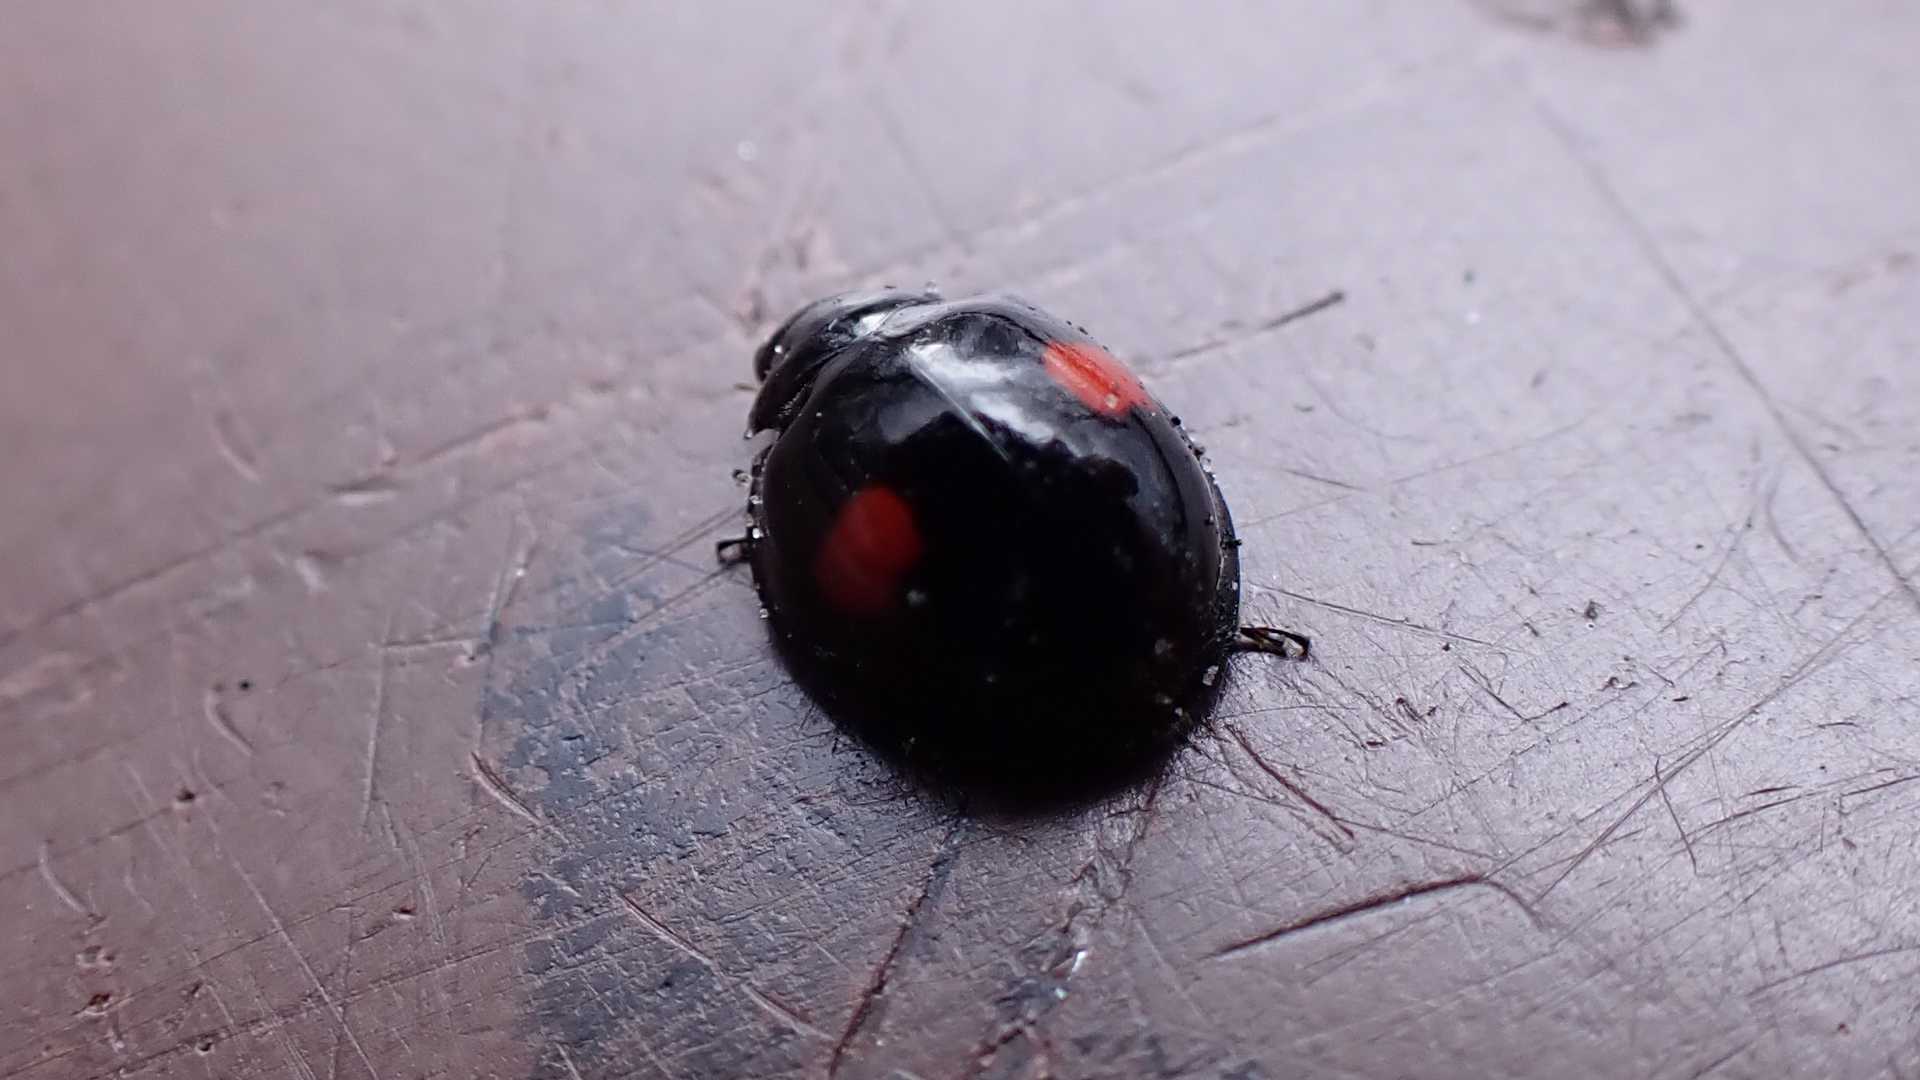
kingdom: Animalia
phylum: Arthropoda
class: Insecta
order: Coleoptera
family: Coccinellidae
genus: Chilocorus
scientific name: Chilocorus renipustulatus
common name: Kidney-spot ladybird
